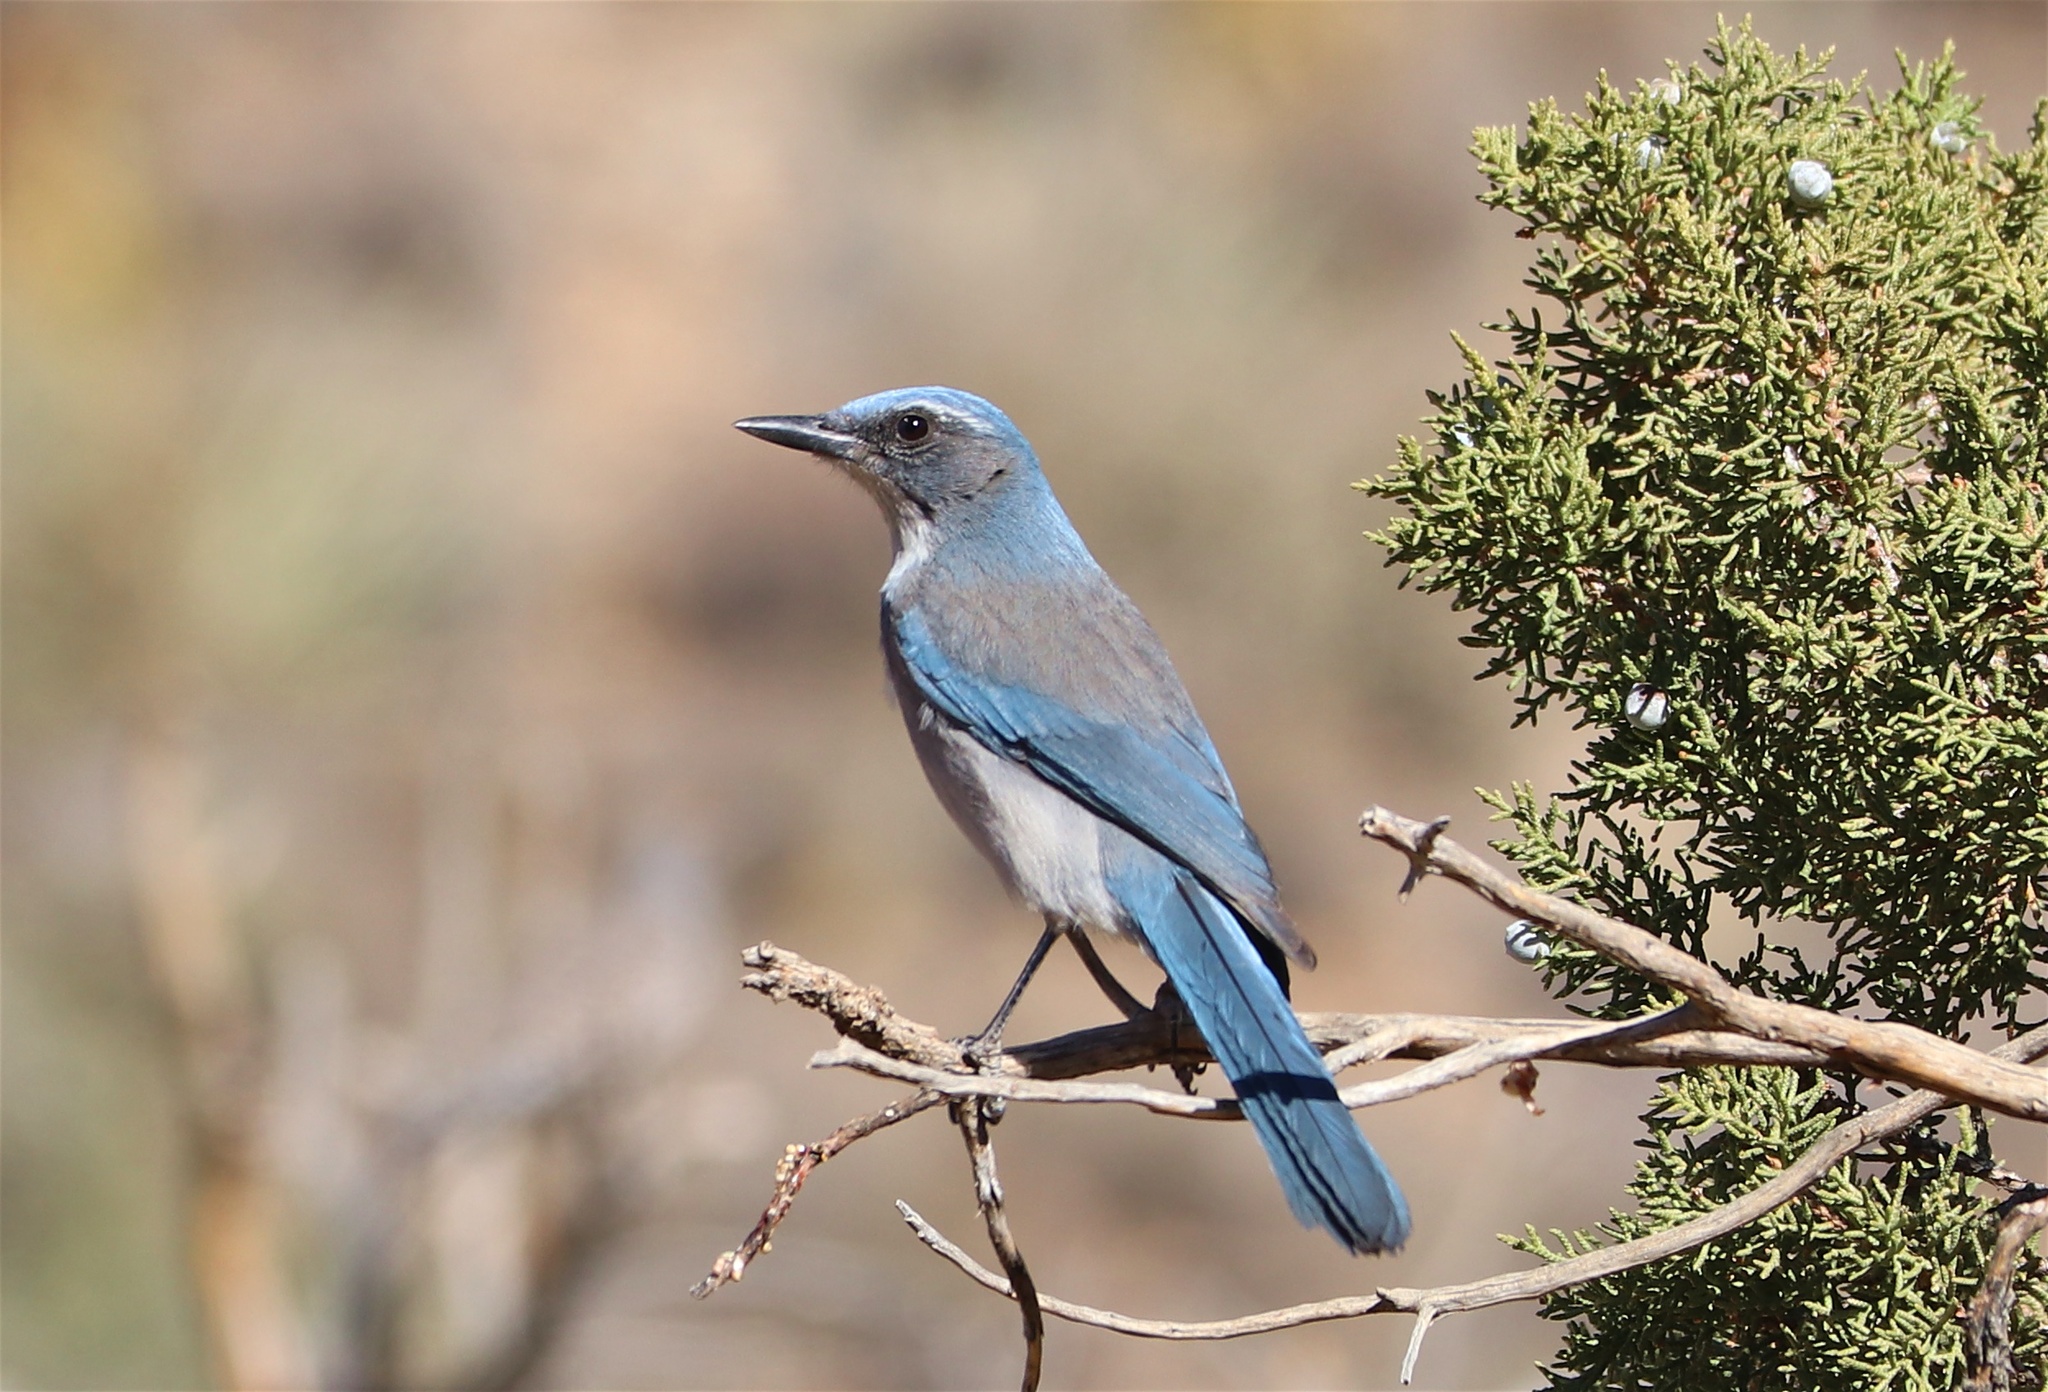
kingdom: Animalia
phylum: Chordata
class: Aves
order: Passeriformes
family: Corvidae
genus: Aphelocoma
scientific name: Aphelocoma woodhouseii
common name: Woodhouse's scrub-jay
